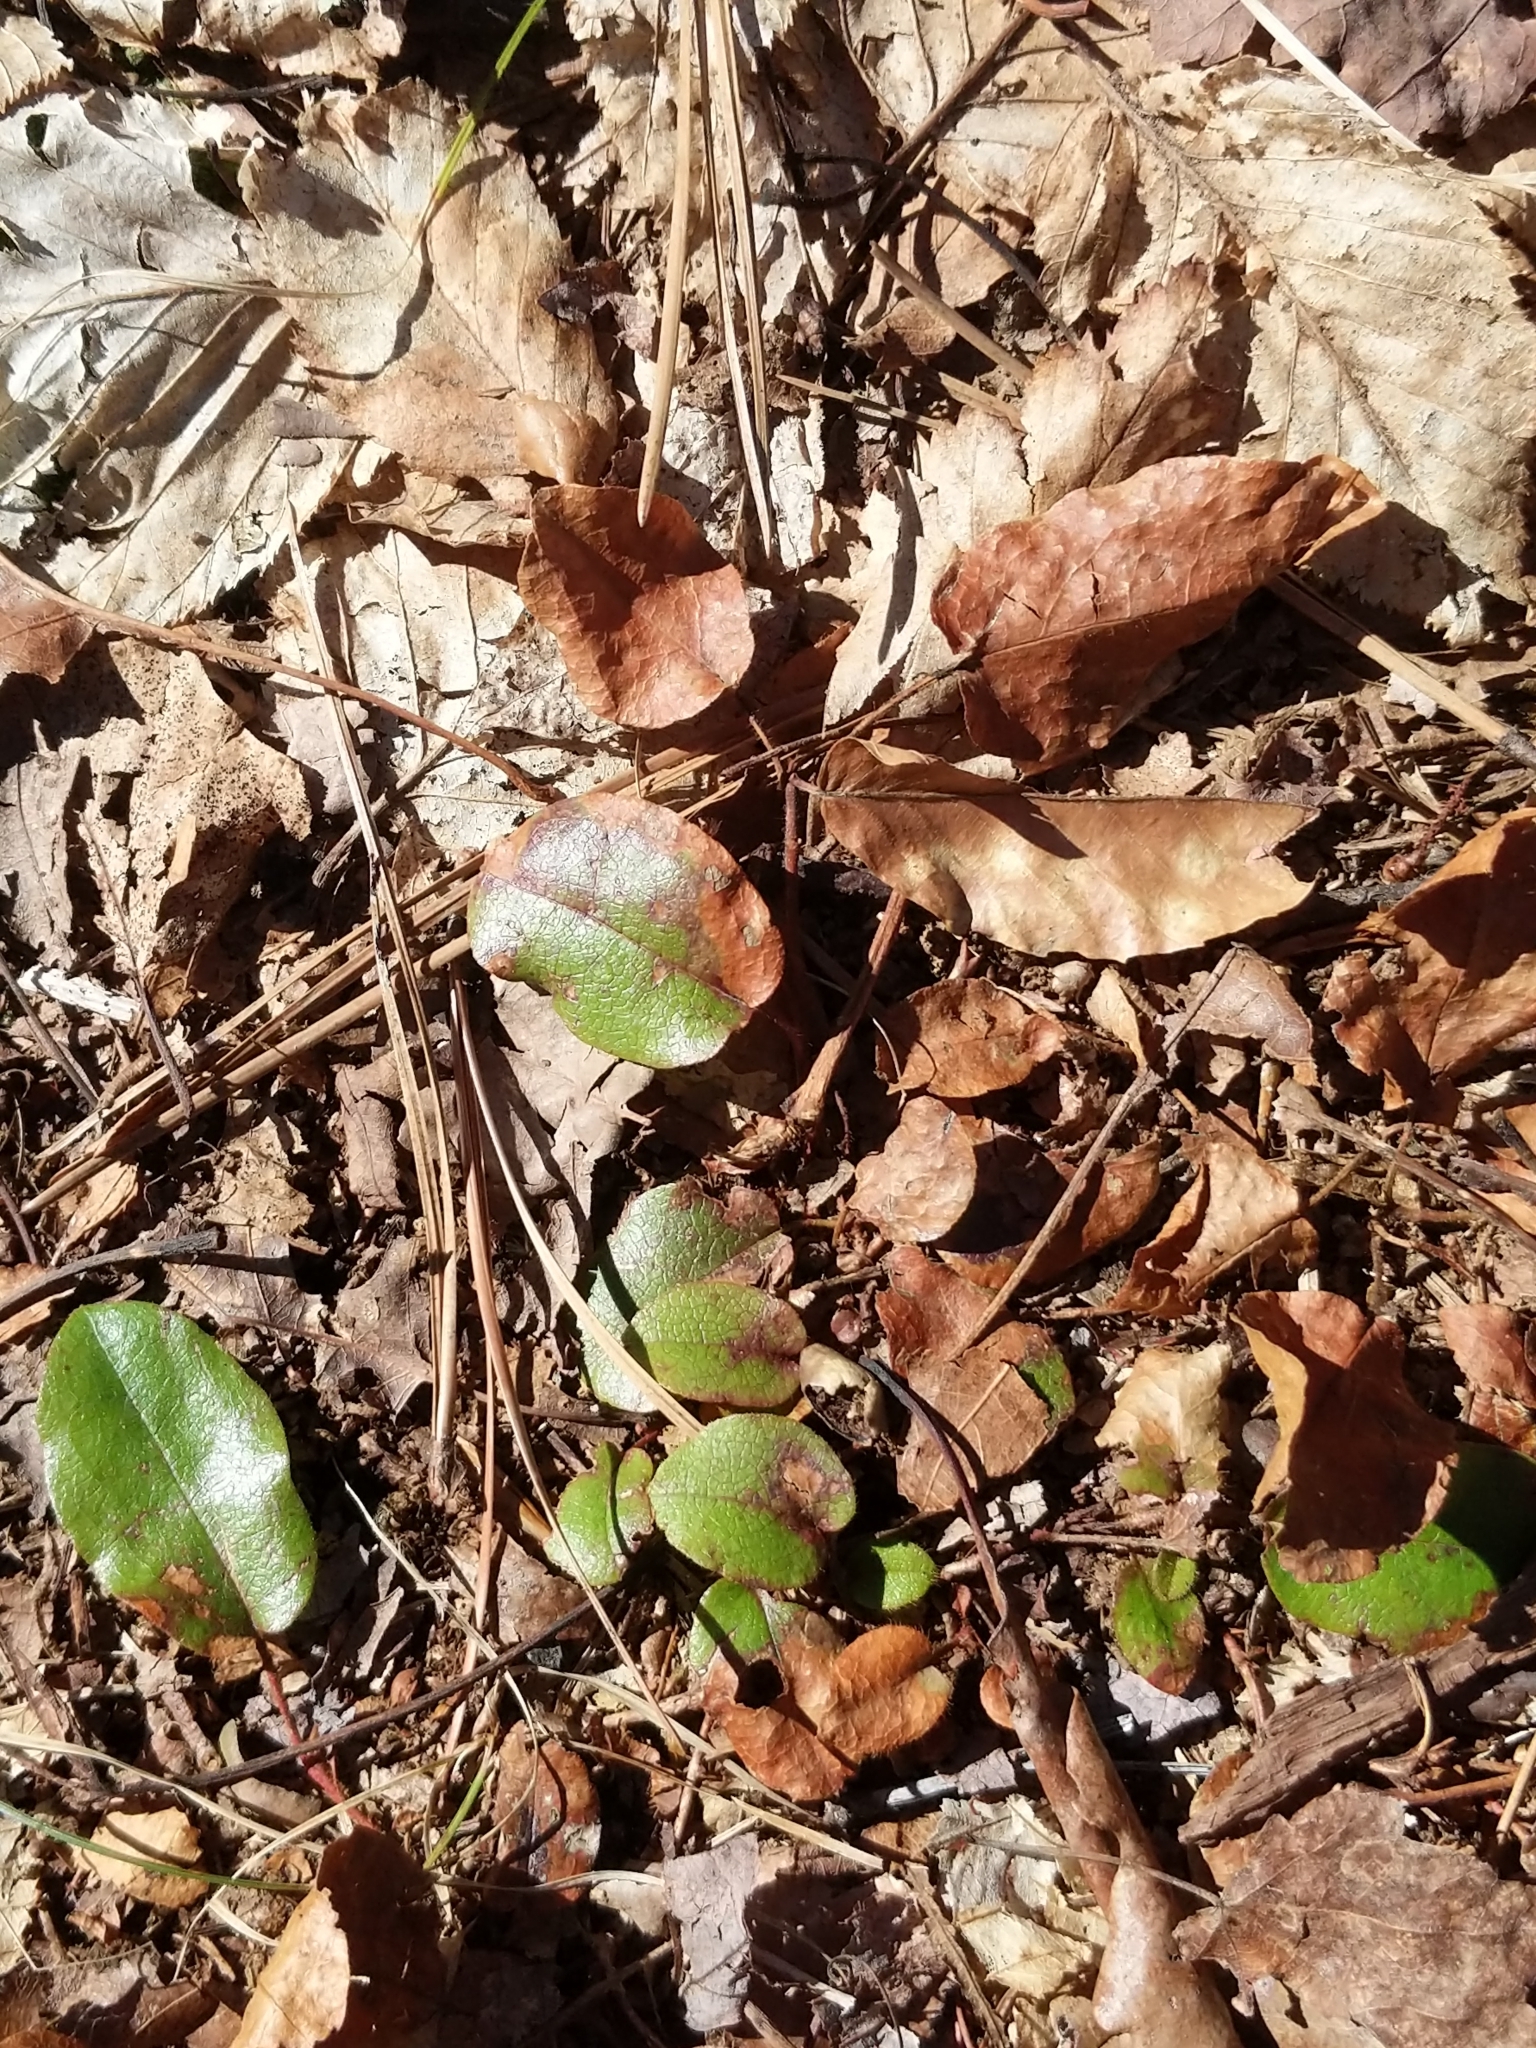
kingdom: Plantae
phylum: Tracheophyta
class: Magnoliopsida
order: Ericales
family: Ericaceae
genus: Epigaea
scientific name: Epigaea repens
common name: Gravelroot
